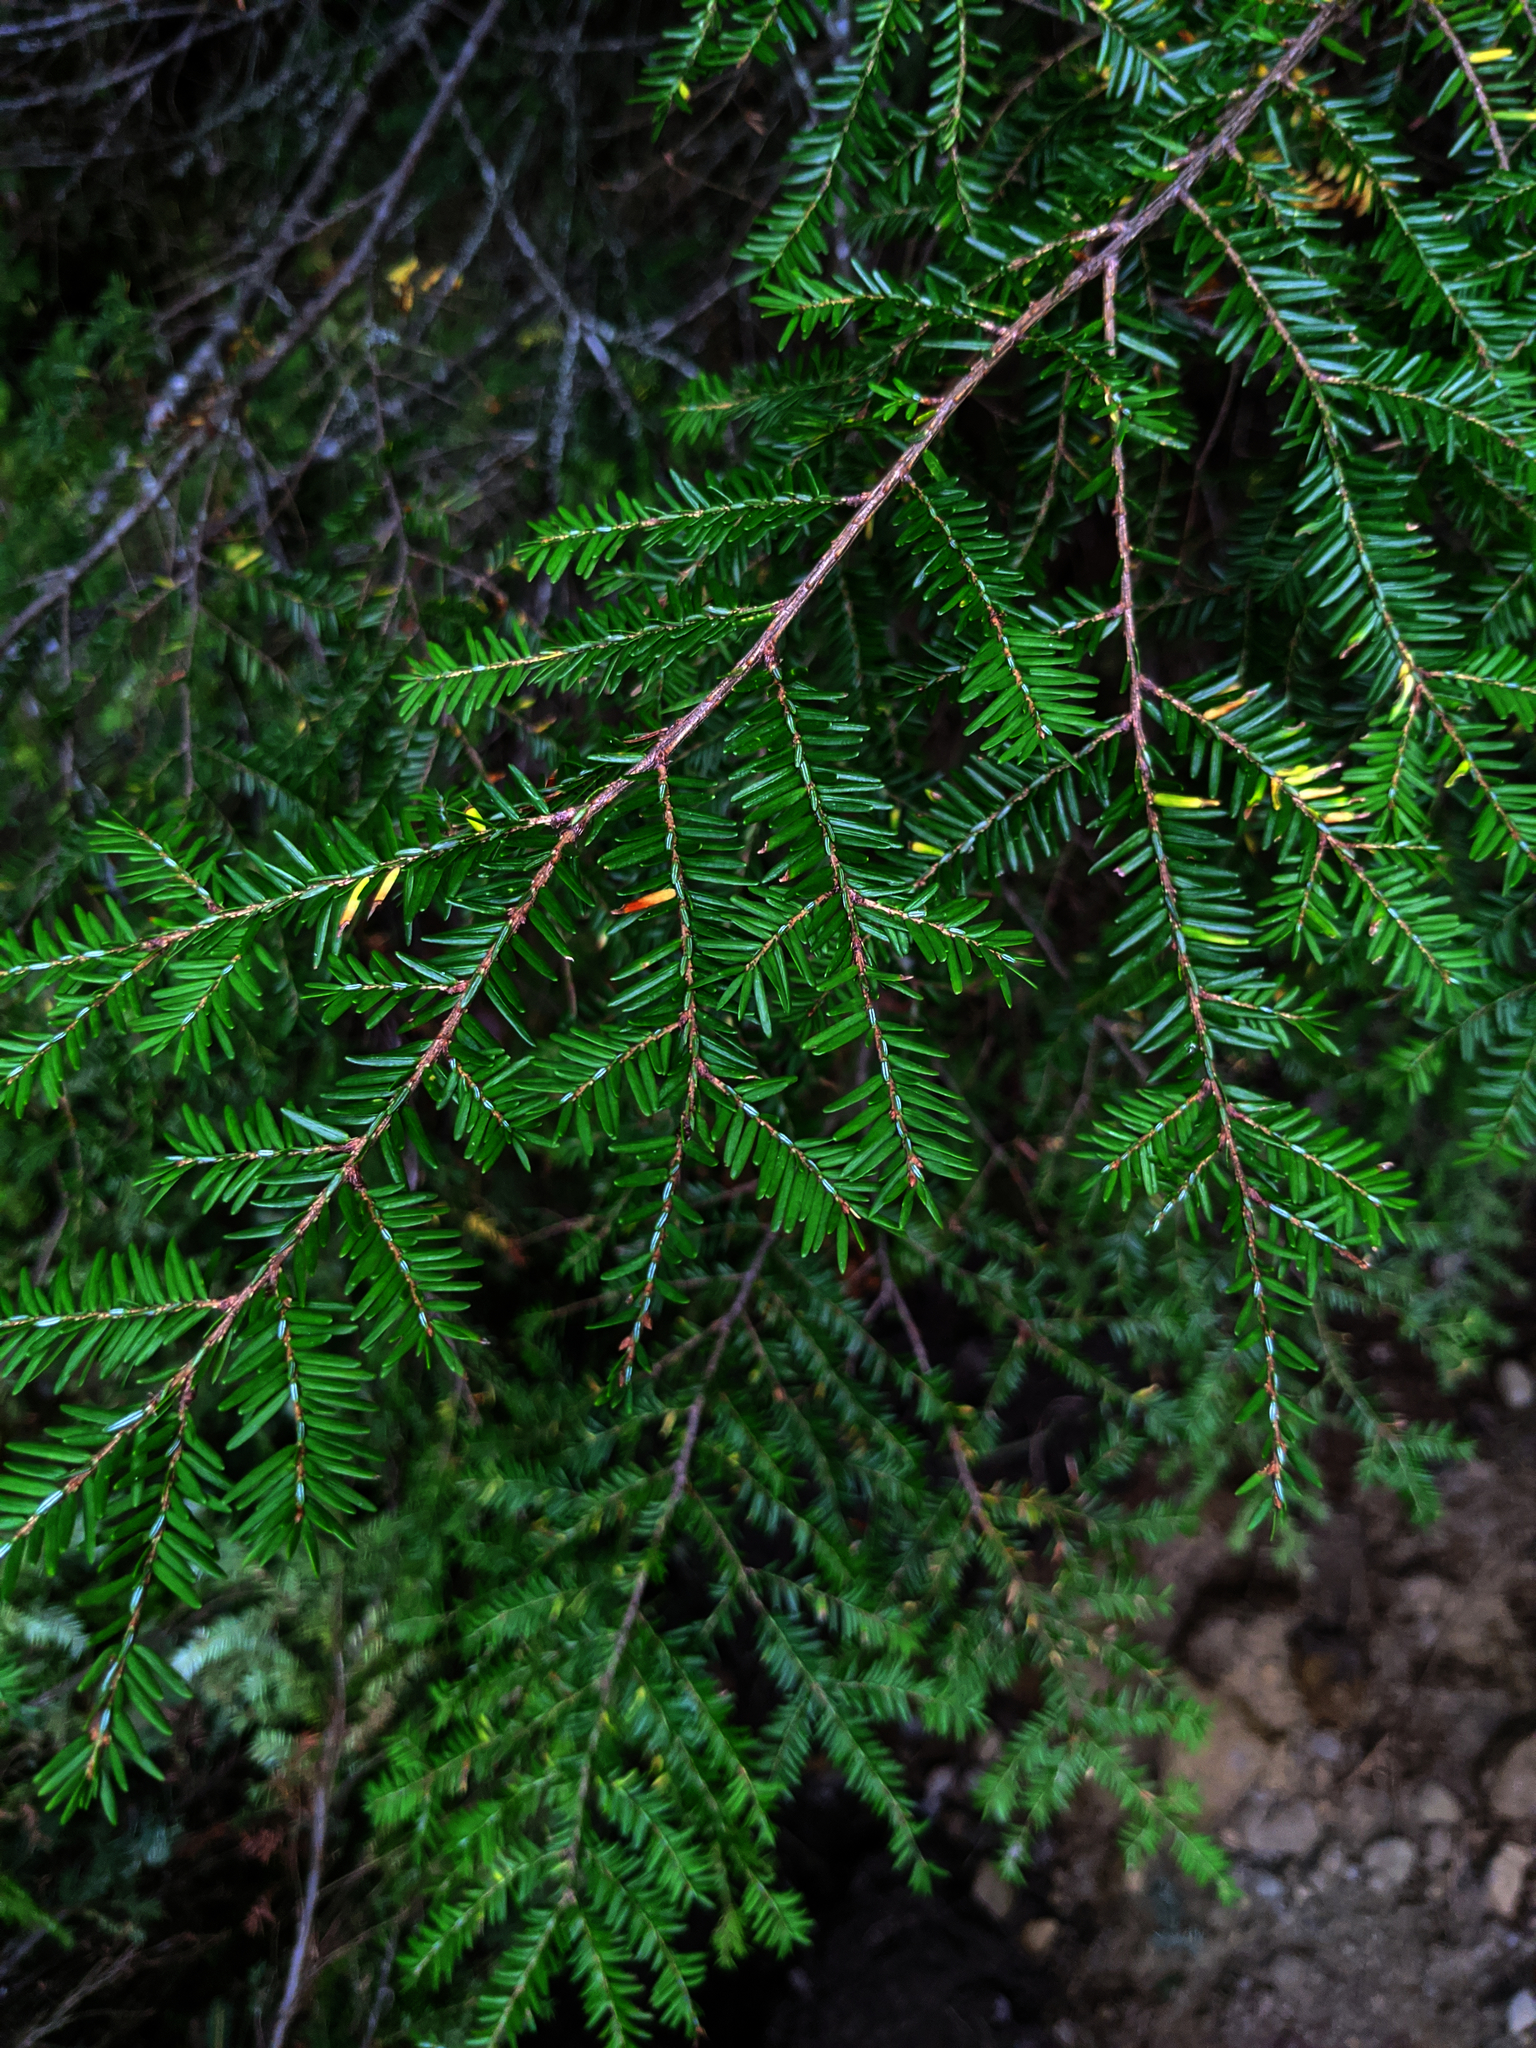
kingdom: Plantae
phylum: Tracheophyta
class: Pinopsida
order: Pinales
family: Pinaceae
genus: Tsuga
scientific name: Tsuga canadensis
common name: Eastern hemlock
